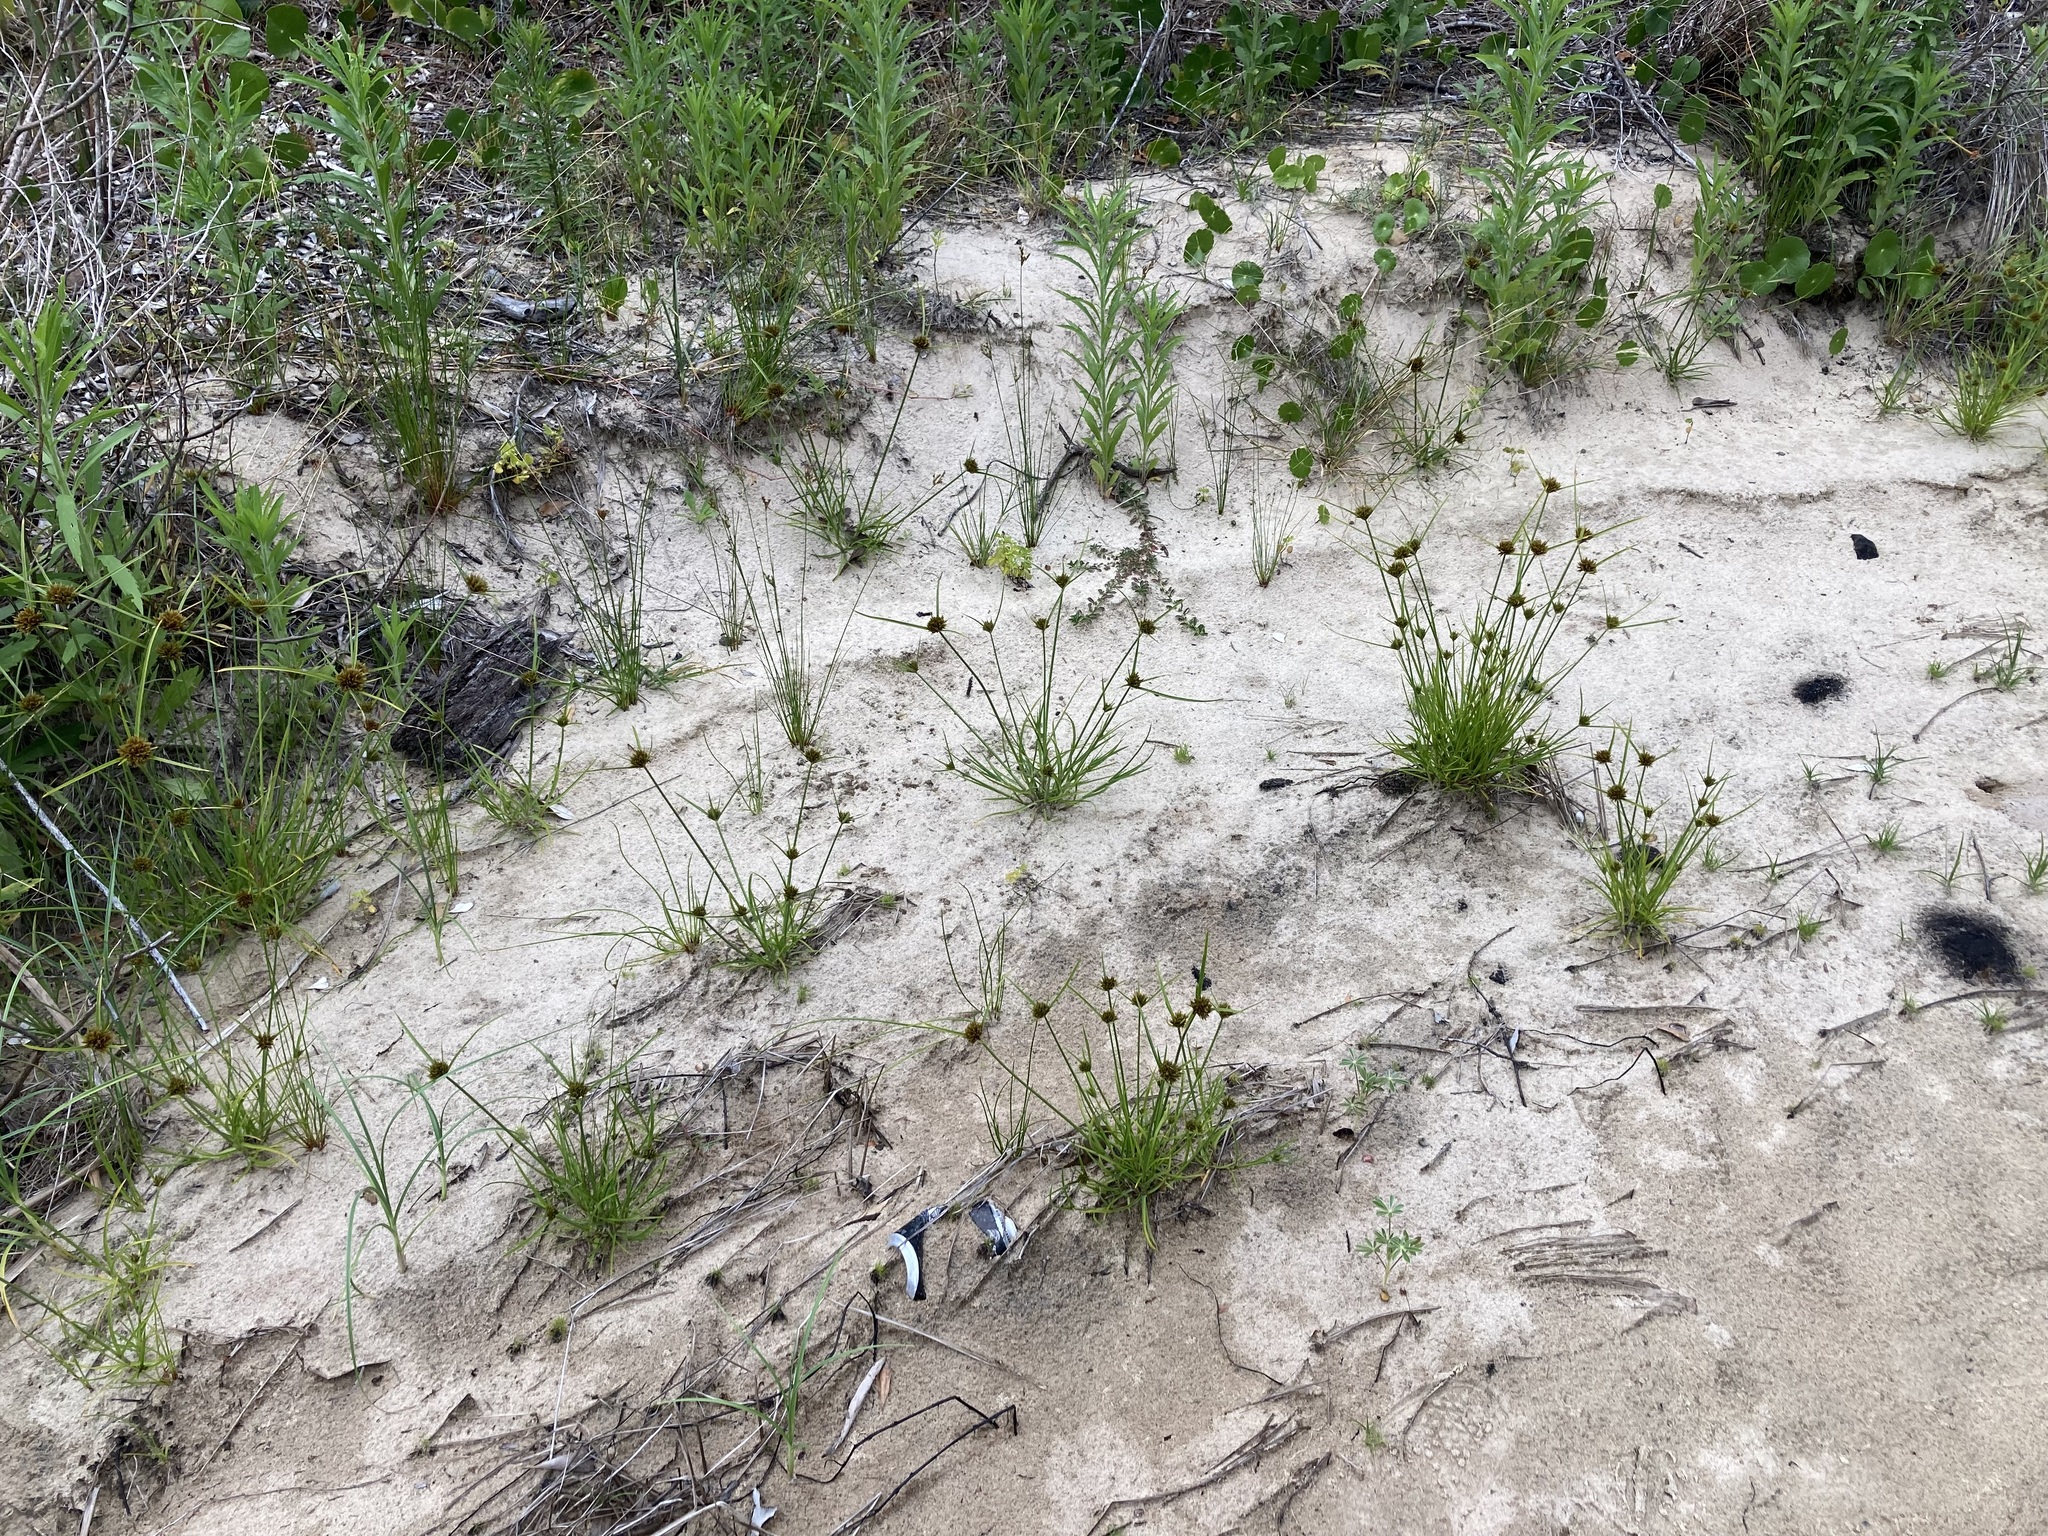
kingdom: Plantae
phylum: Tracheophyta
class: Liliopsida
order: Poales
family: Cyperaceae
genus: Cyperus
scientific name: Cyperus polystachyos
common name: Bunchy flat sedge
